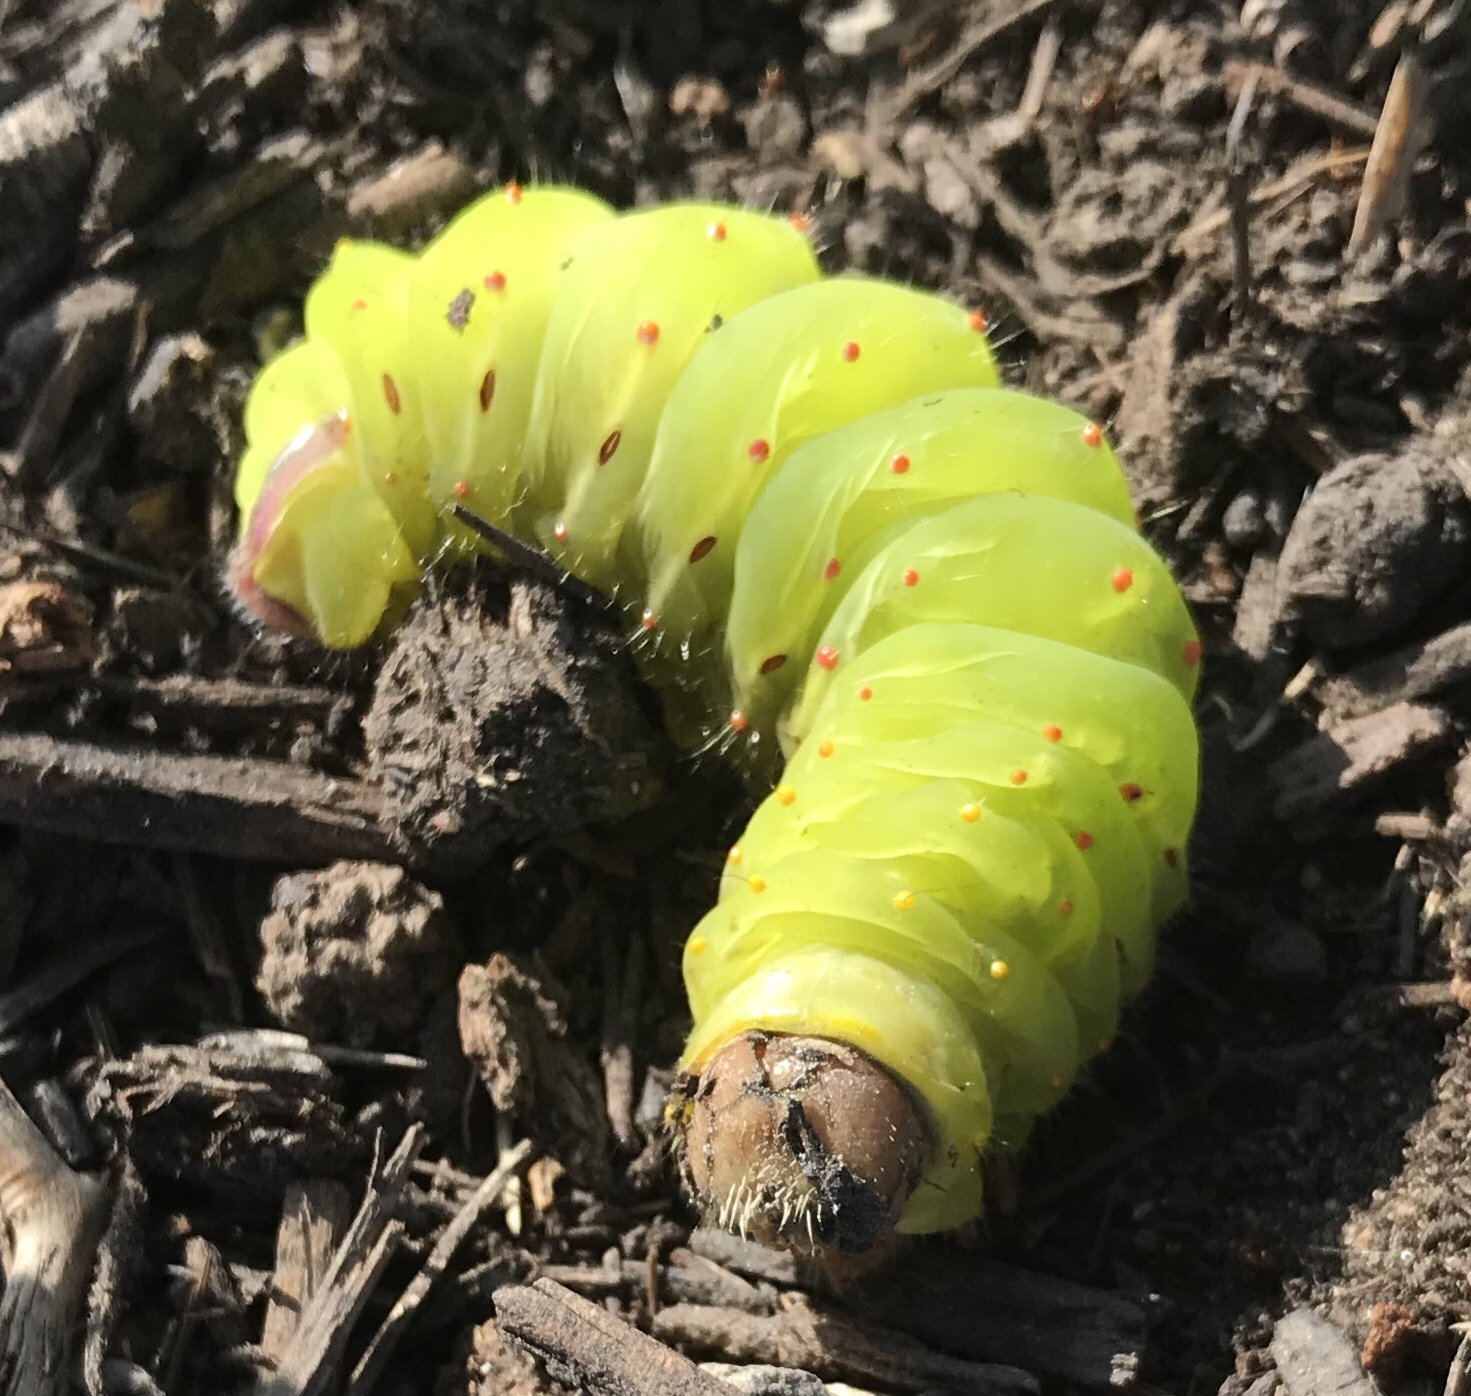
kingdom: Animalia
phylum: Arthropoda
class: Insecta
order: Lepidoptera
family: Saturniidae
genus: Antheraea
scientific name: Antheraea polyphemus
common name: Polyphemus moth
